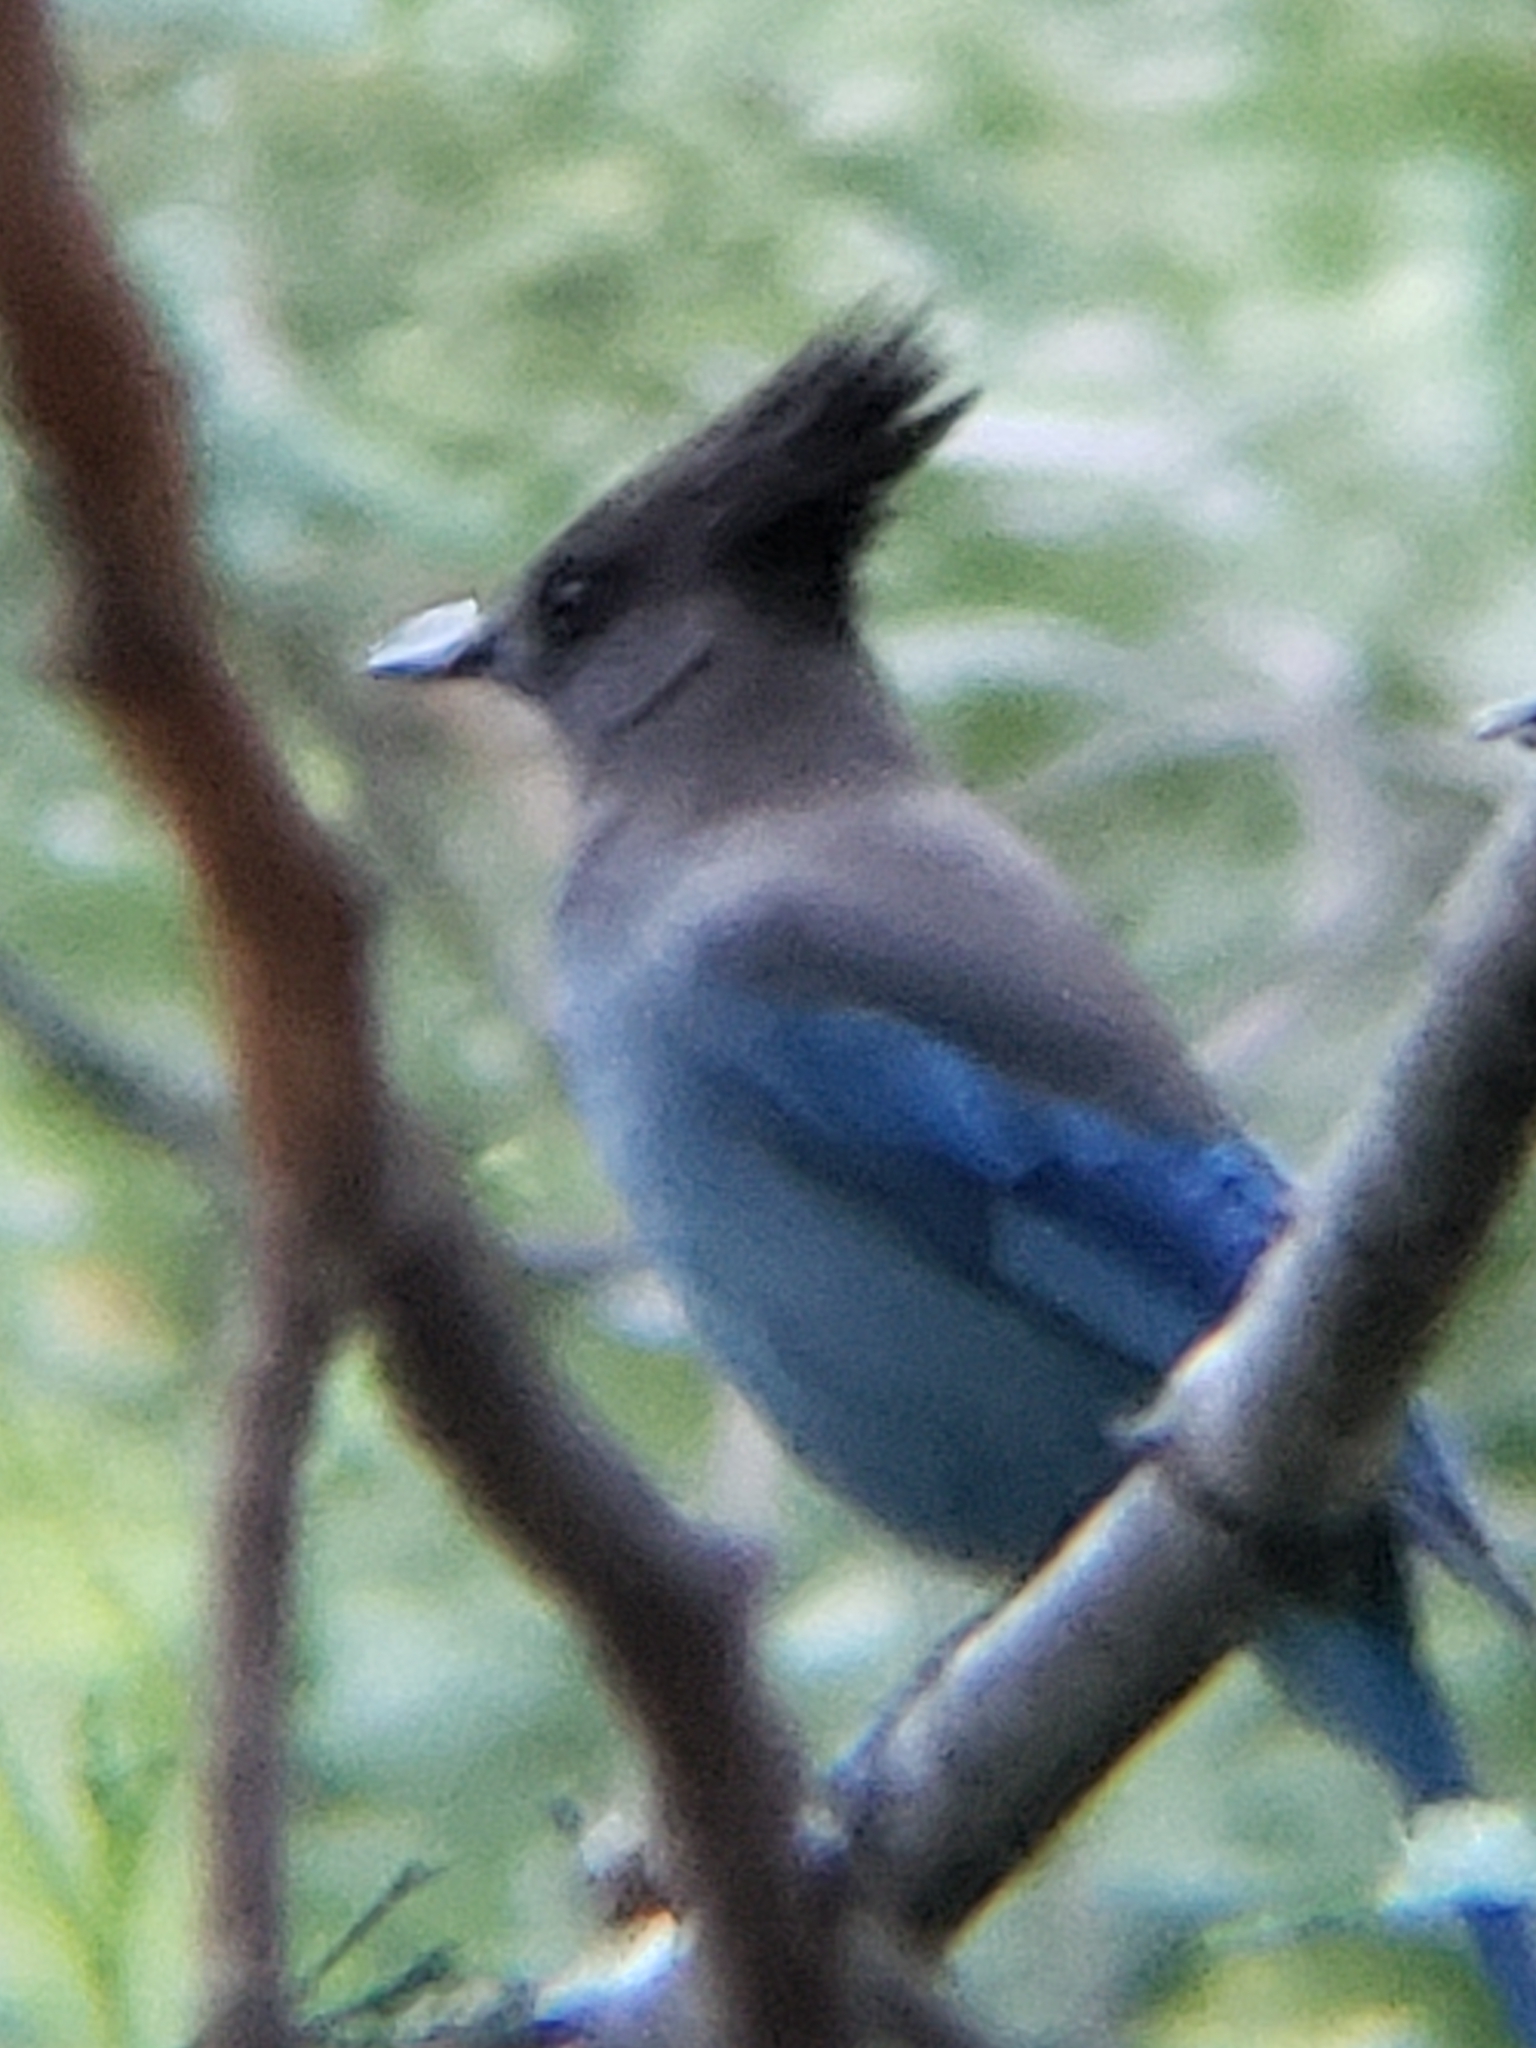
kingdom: Animalia
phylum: Chordata
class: Aves
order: Passeriformes
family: Corvidae
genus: Cyanocitta
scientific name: Cyanocitta stelleri
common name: Steller's jay
